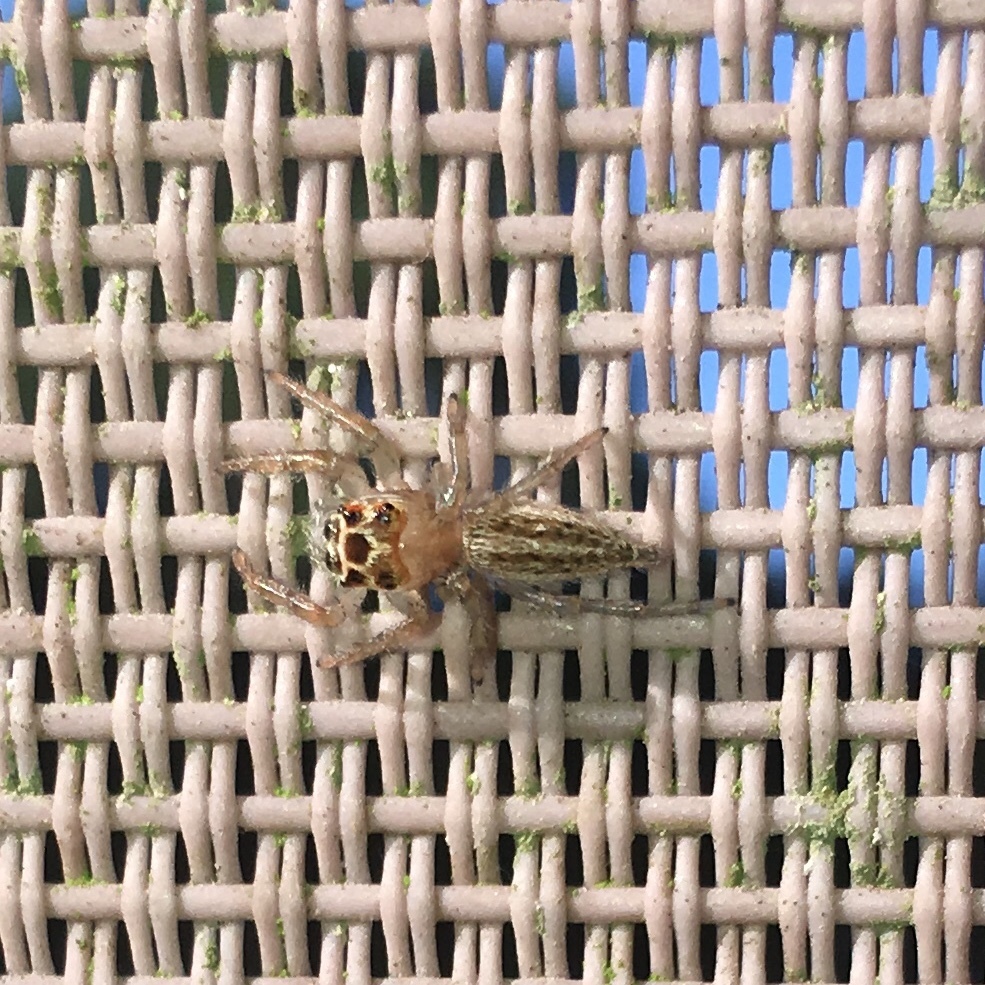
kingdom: Animalia
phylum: Arthropoda
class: Arachnida
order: Araneae
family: Salticidae
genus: Colonus
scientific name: Colonus sylvanus
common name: Jumping spiders
